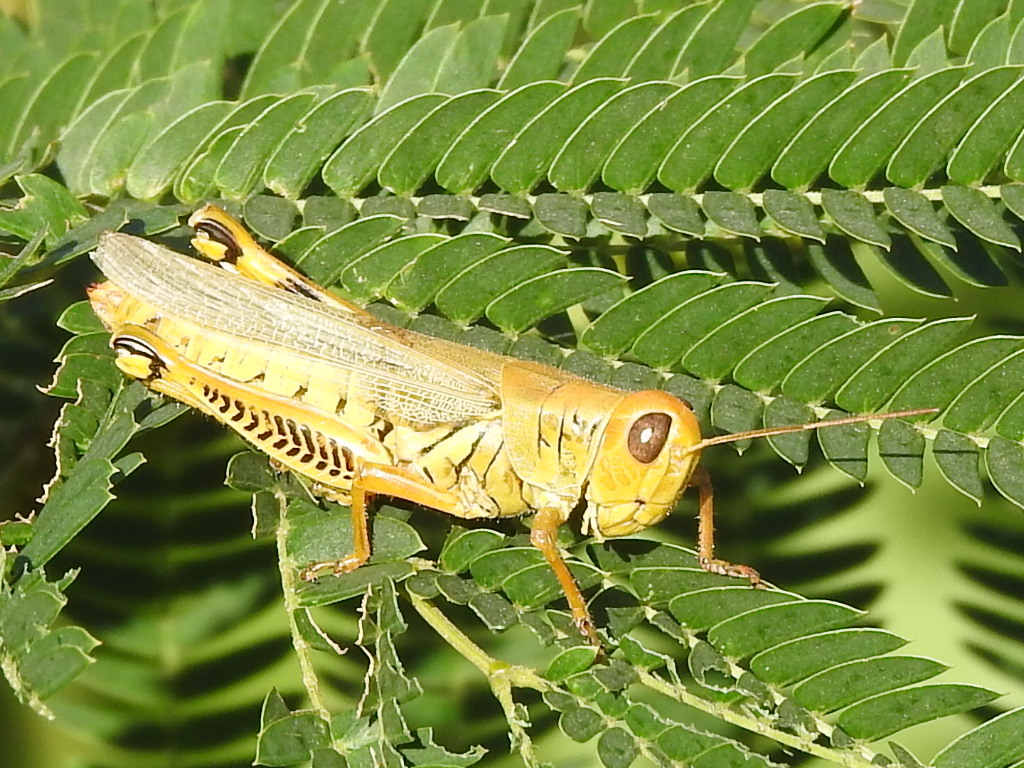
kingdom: Animalia
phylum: Arthropoda
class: Insecta
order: Orthoptera
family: Acrididae
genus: Melanoplus
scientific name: Melanoplus differentialis
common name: Differential grasshopper
